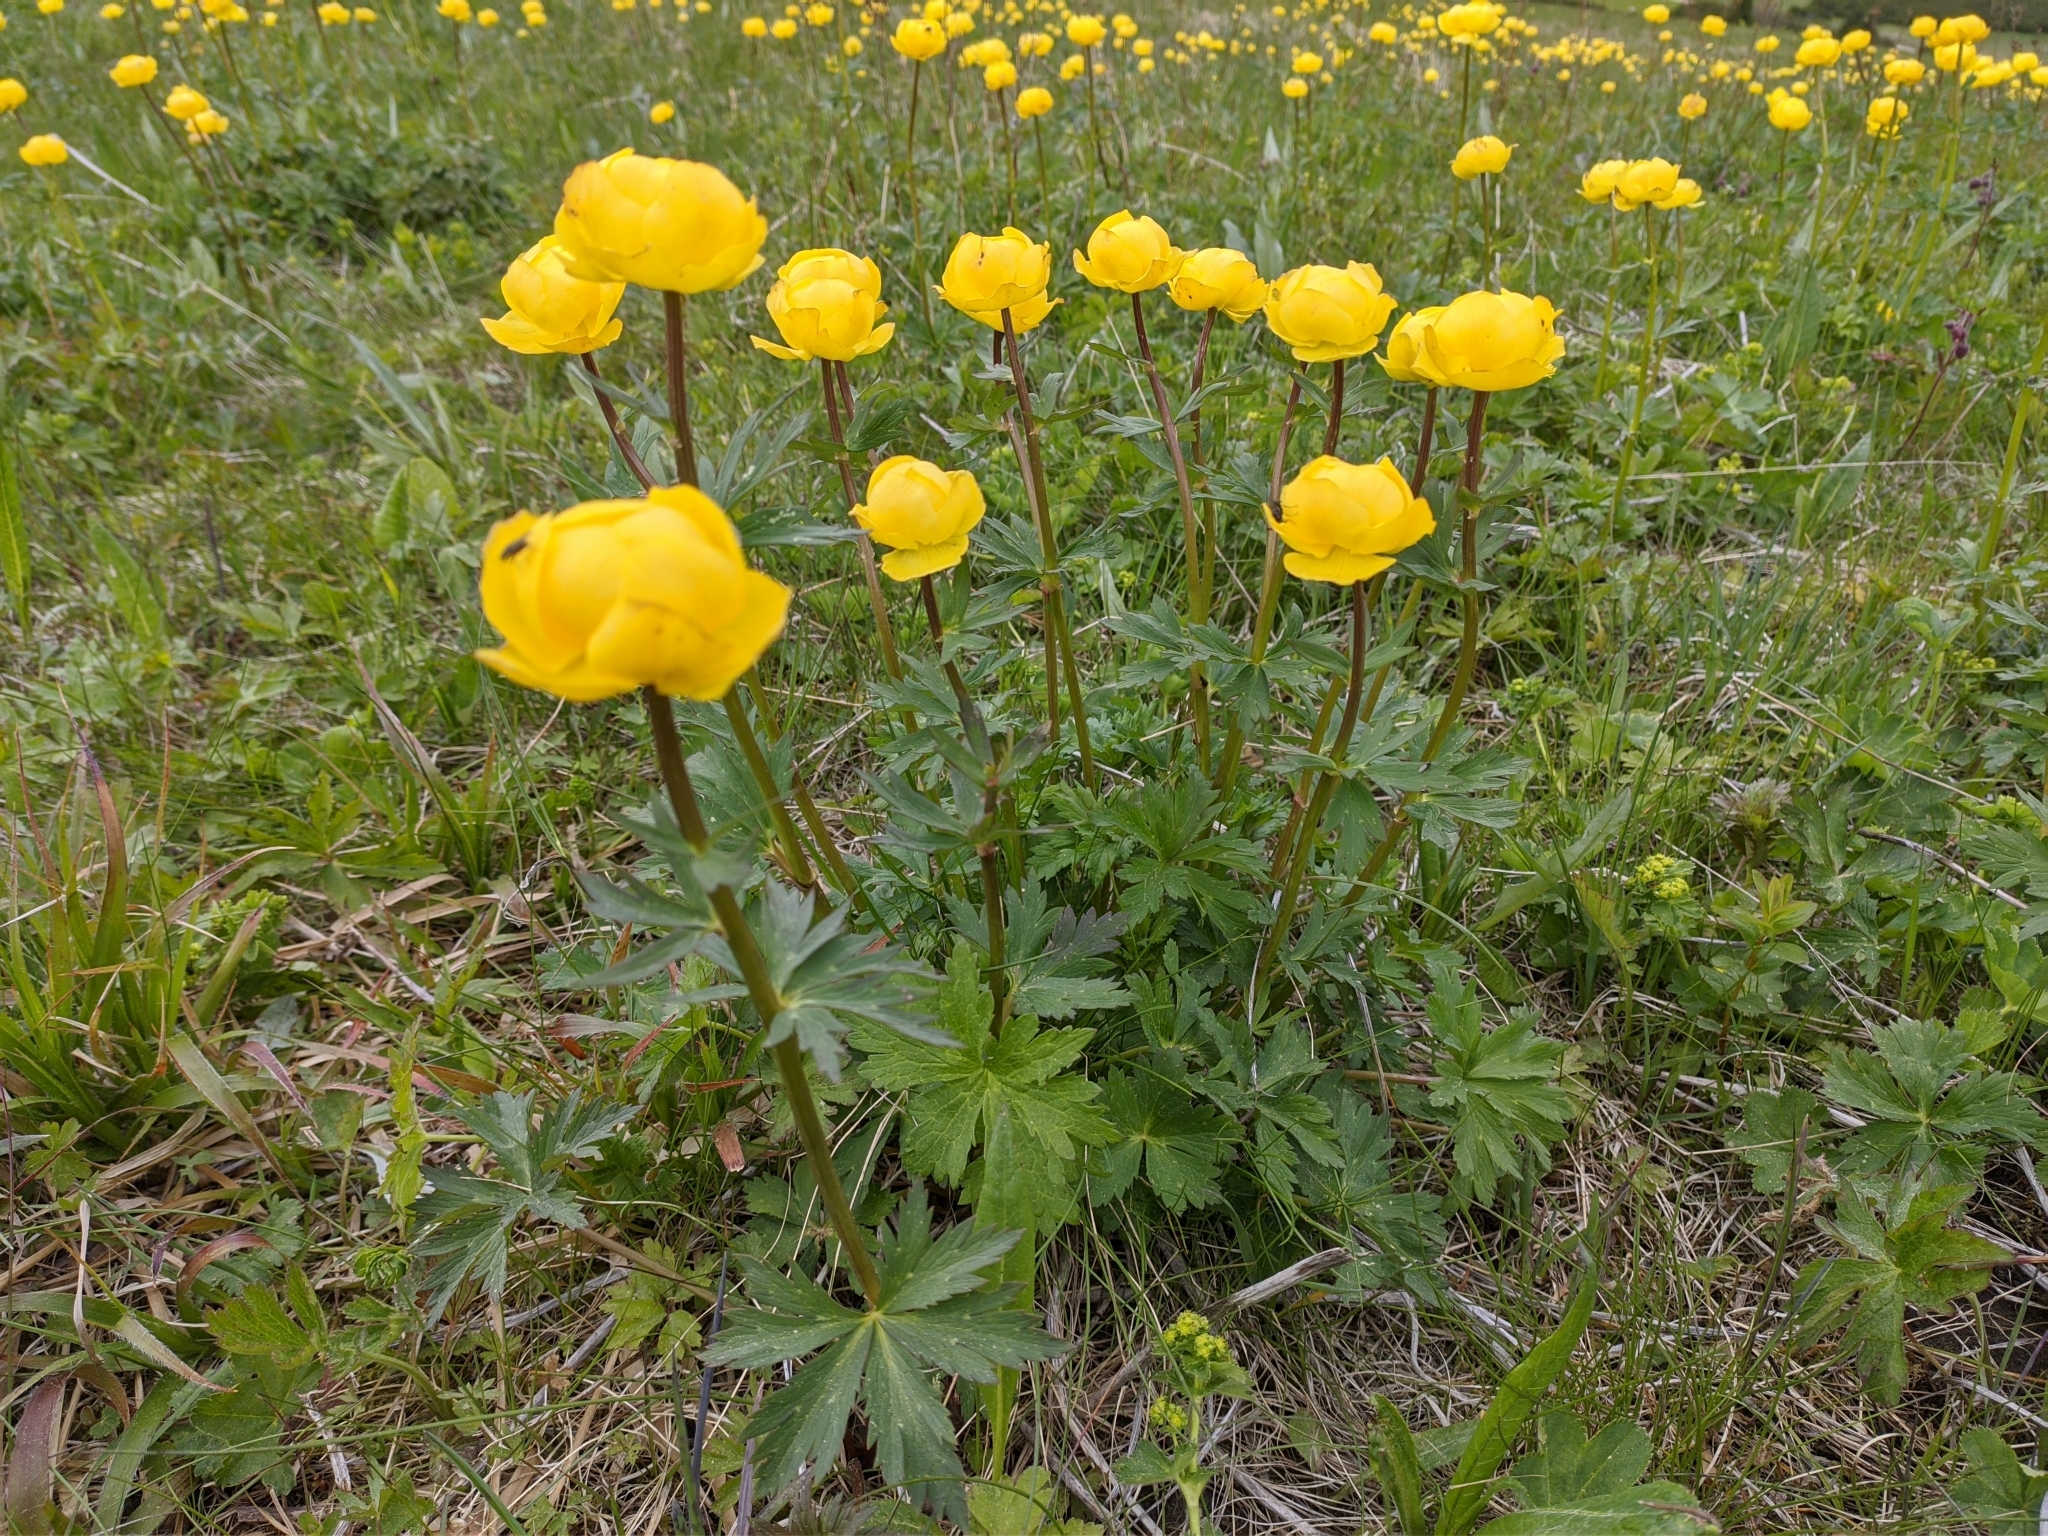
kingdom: Plantae
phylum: Tracheophyta
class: Magnoliopsida
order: Ranunculales
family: Ranunculaceae
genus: Trollius
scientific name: Trollius europaeus
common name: European globeflower
